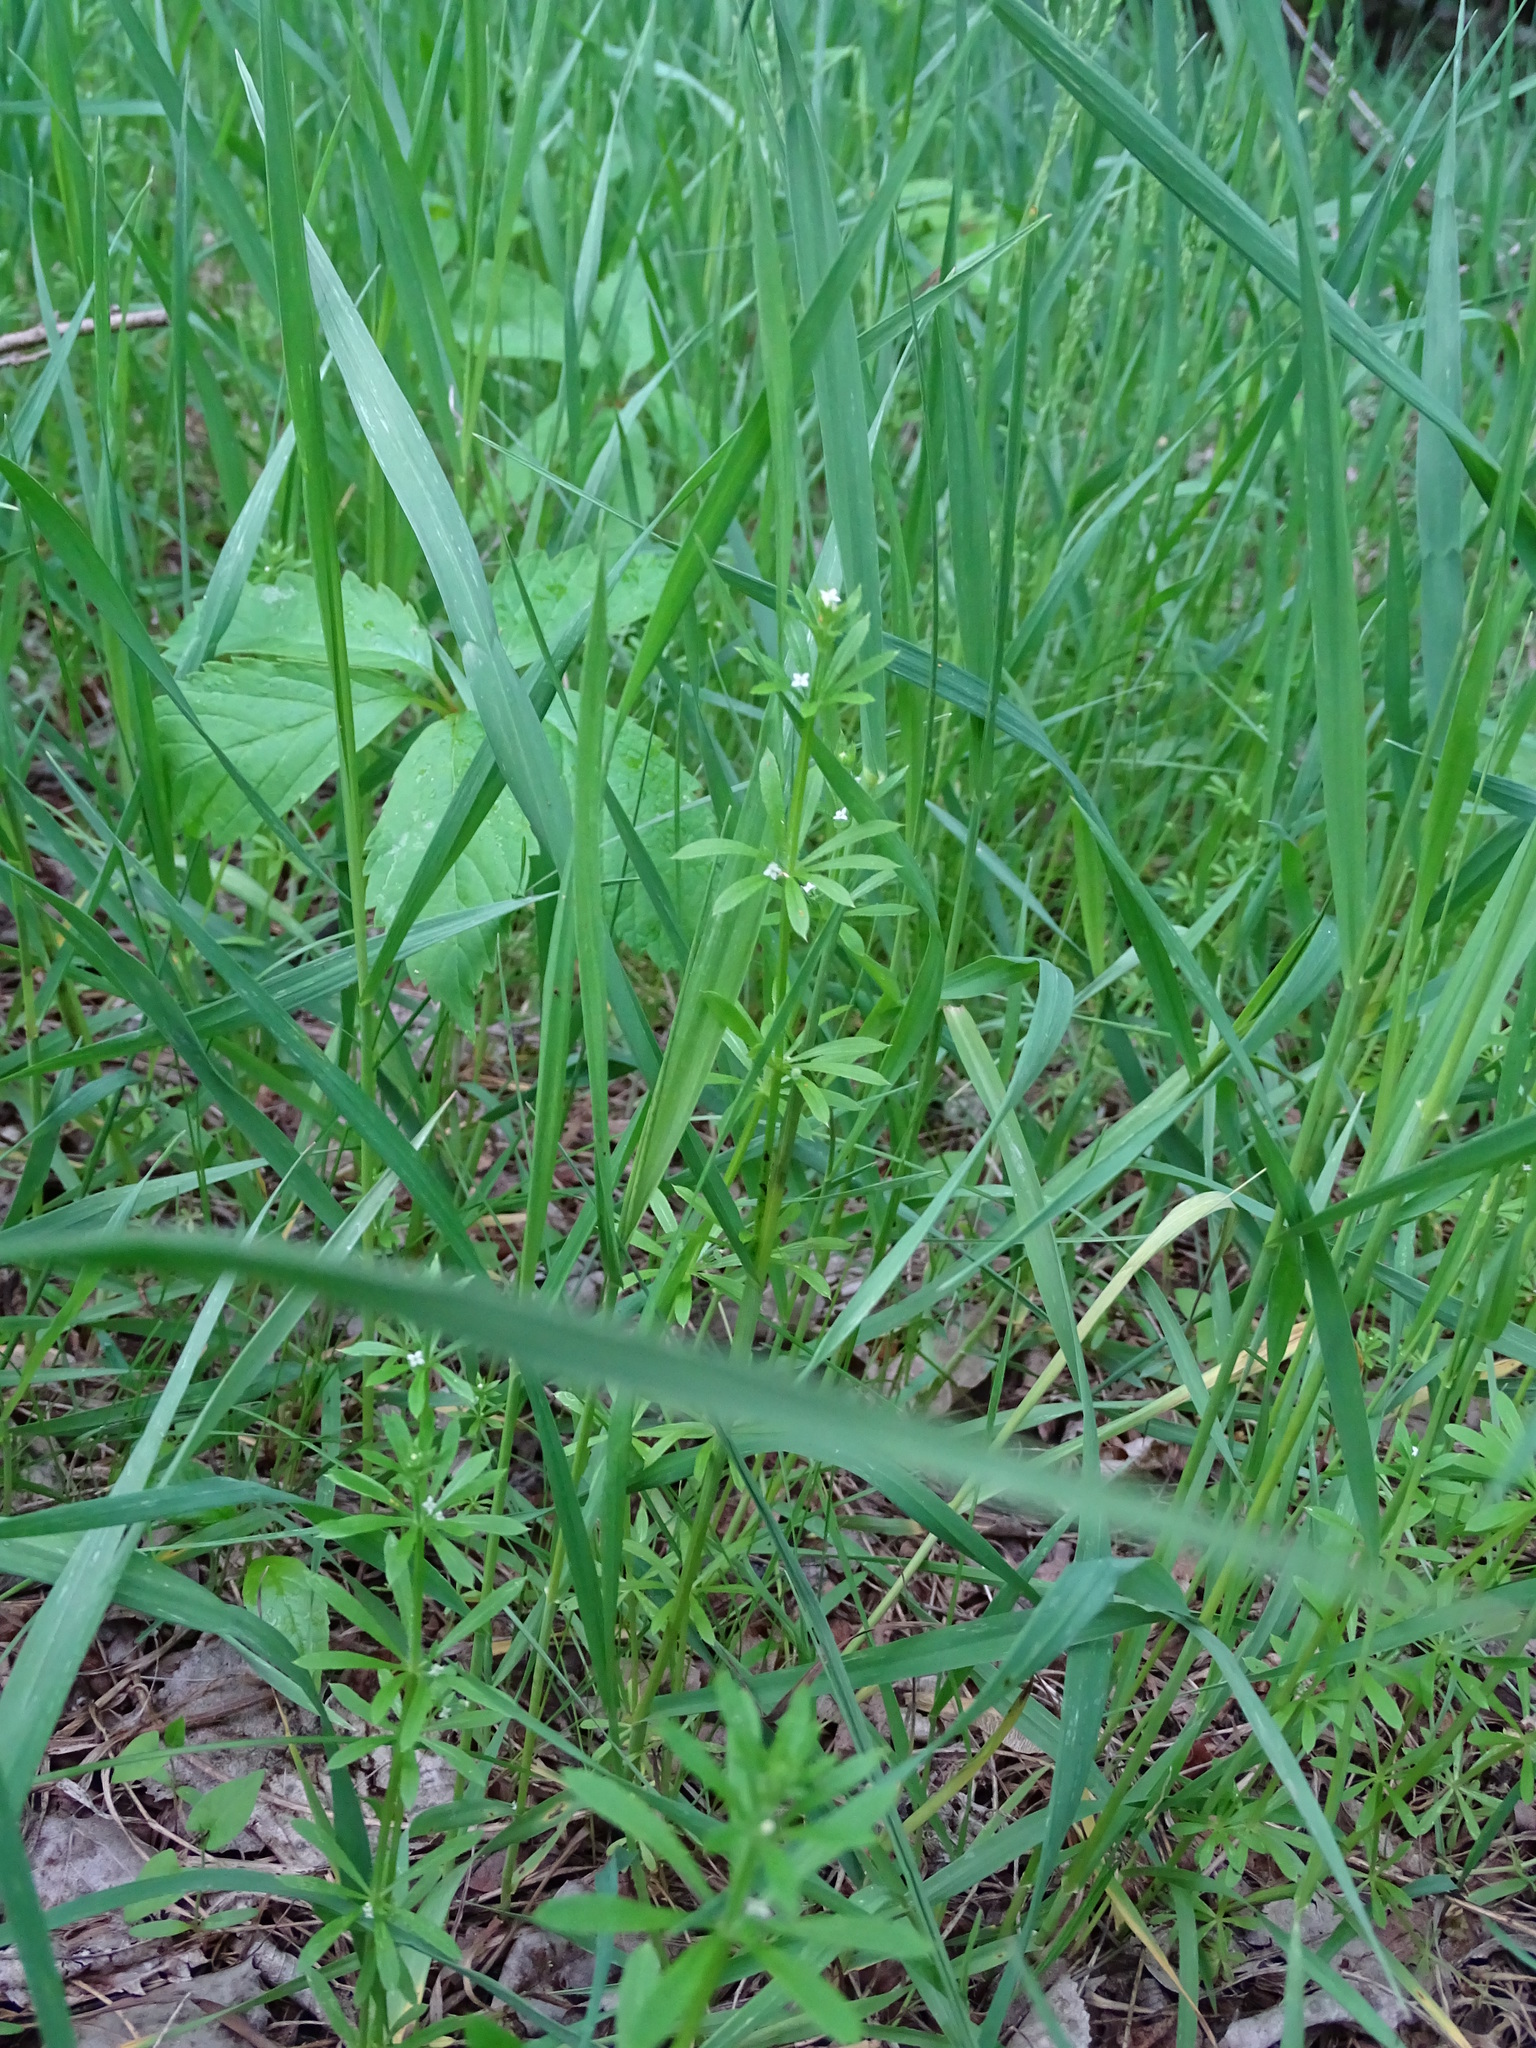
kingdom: Plantae
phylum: Tracheophyta
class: Magnoliopsida
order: Gentianales
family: Rubiaceae
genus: Galium
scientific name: Galium aparine
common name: Cleavers
